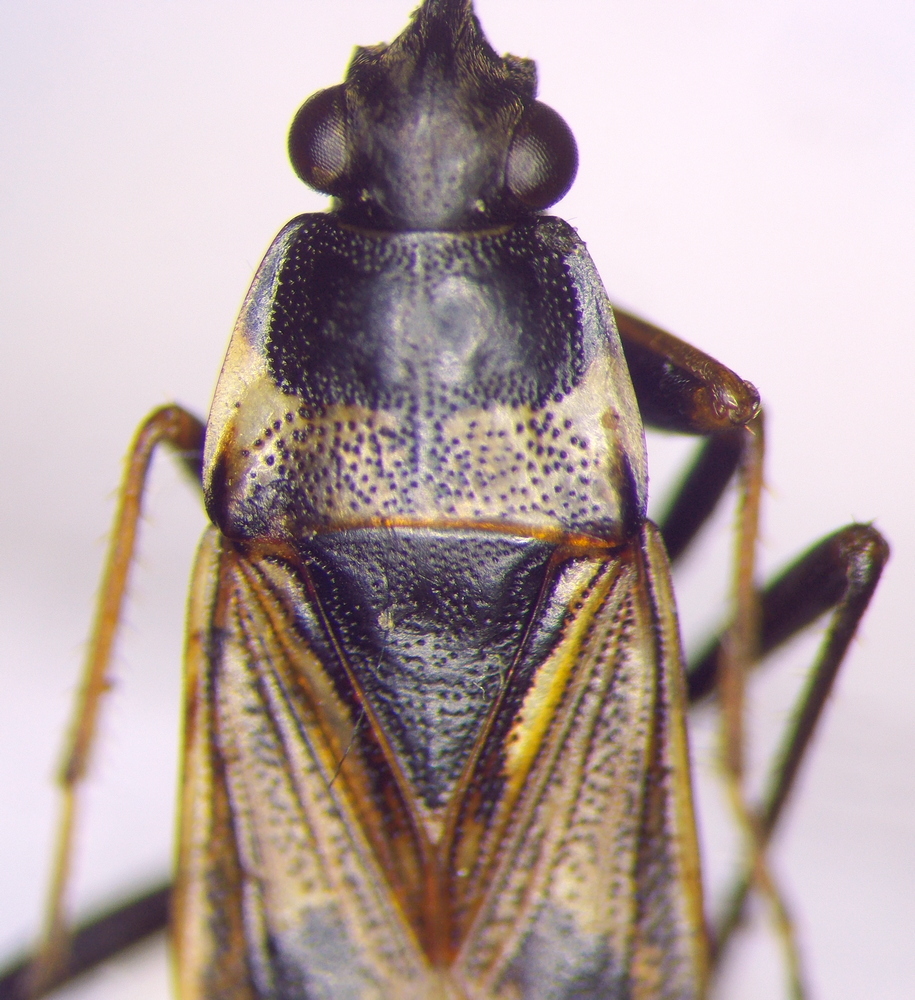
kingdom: Animalia
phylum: Arthropoda
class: Insecta
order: Hemiptera
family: Rhyparochromidae
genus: Rhyparochromus
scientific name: Rhyparochromus vulgaris
